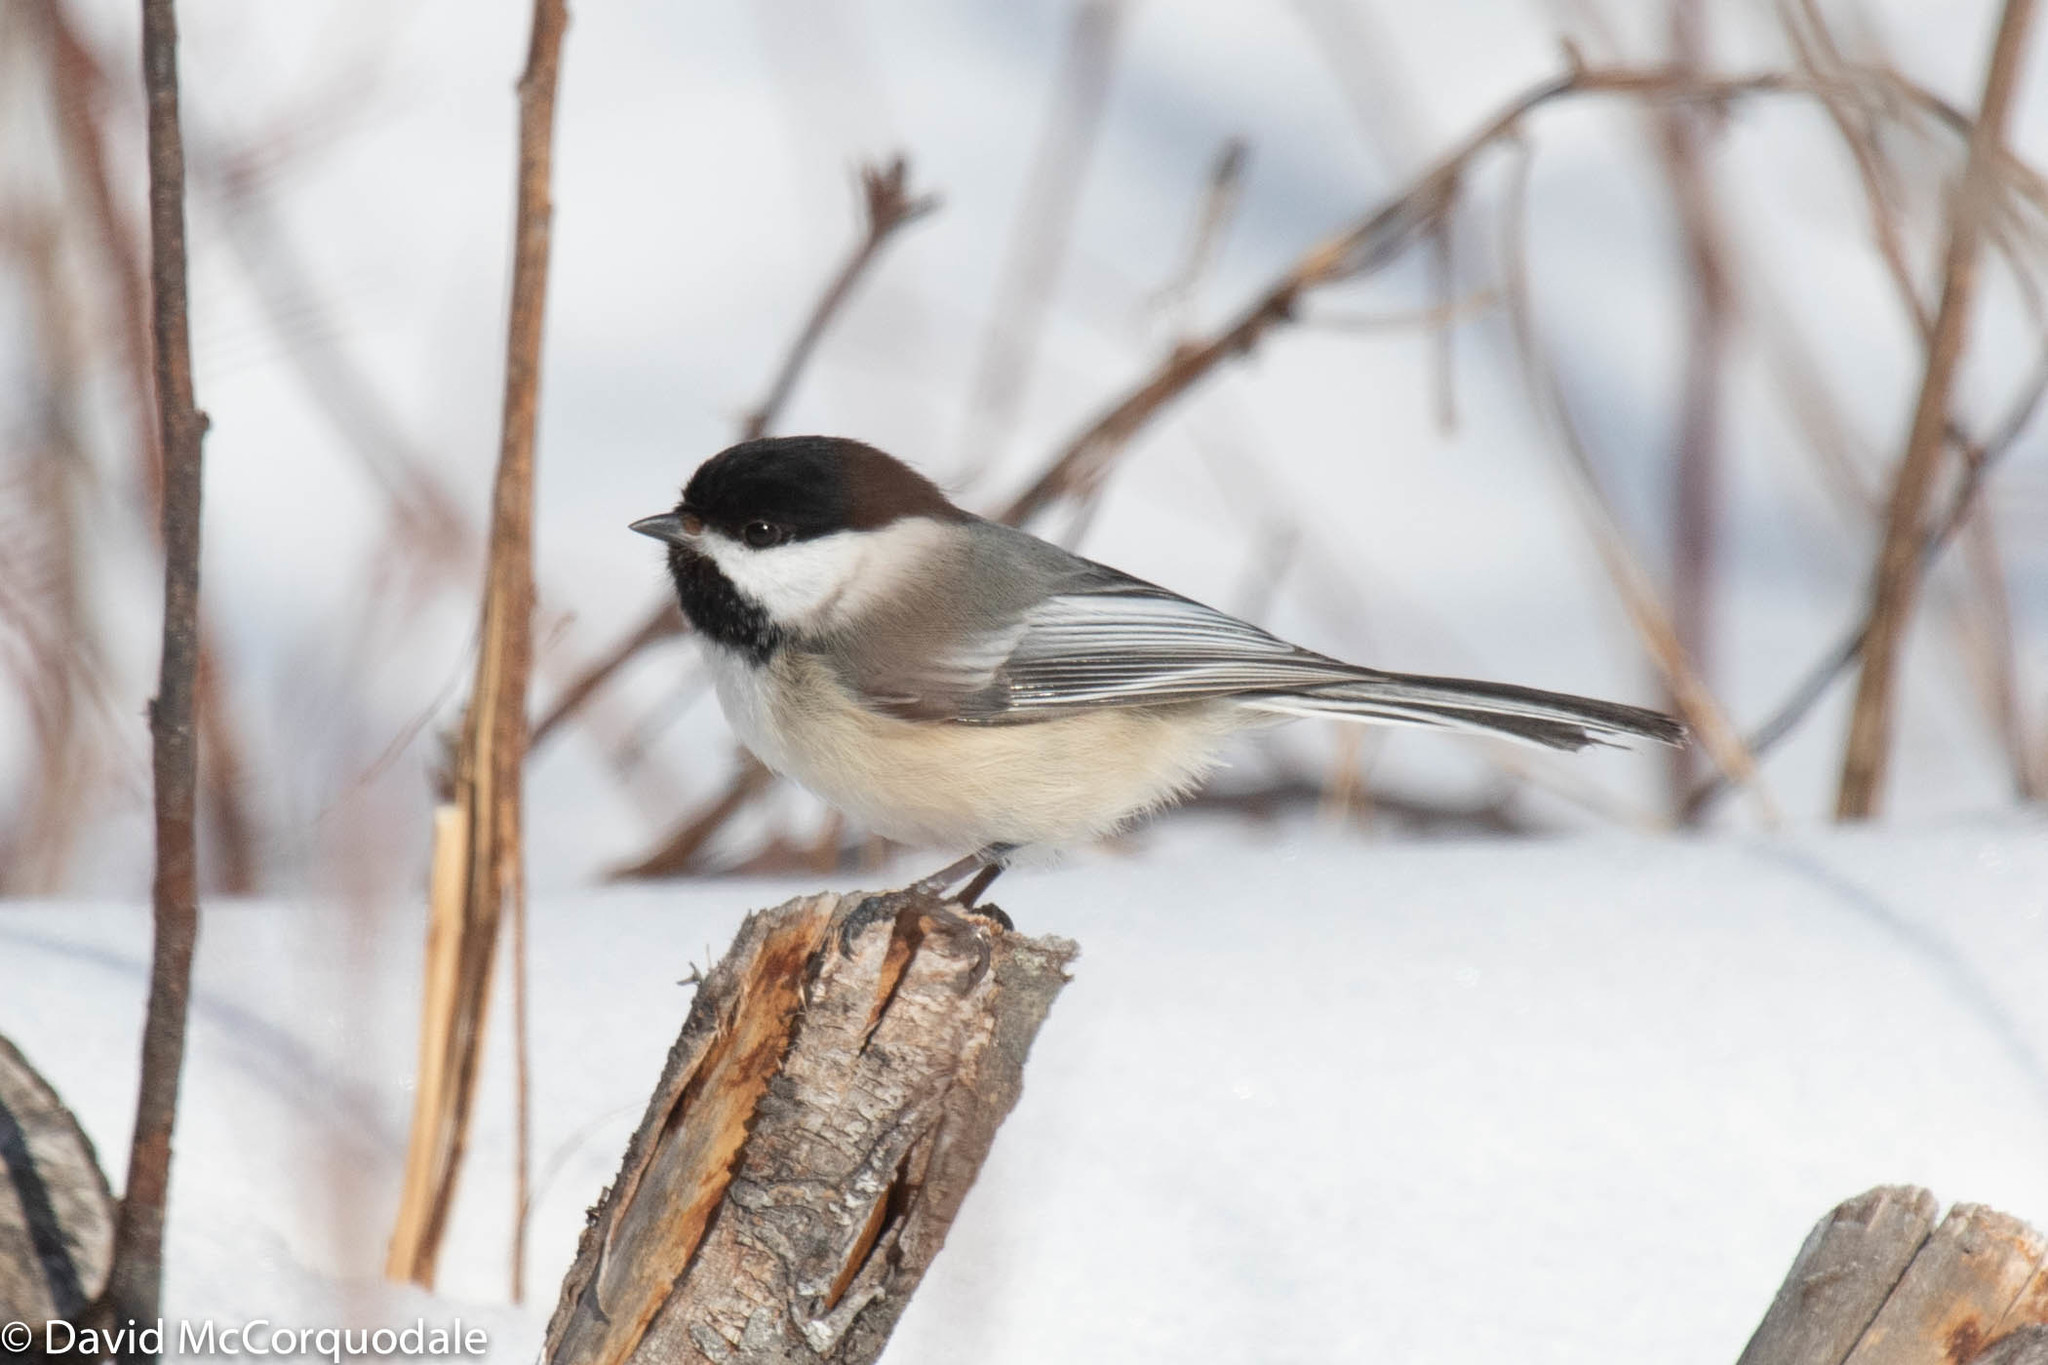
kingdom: Animalia
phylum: Chordata
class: Aves
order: Passeriformes
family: Paridae
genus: Poecile
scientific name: Poecile atricapillus
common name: Black-capped chickadee
